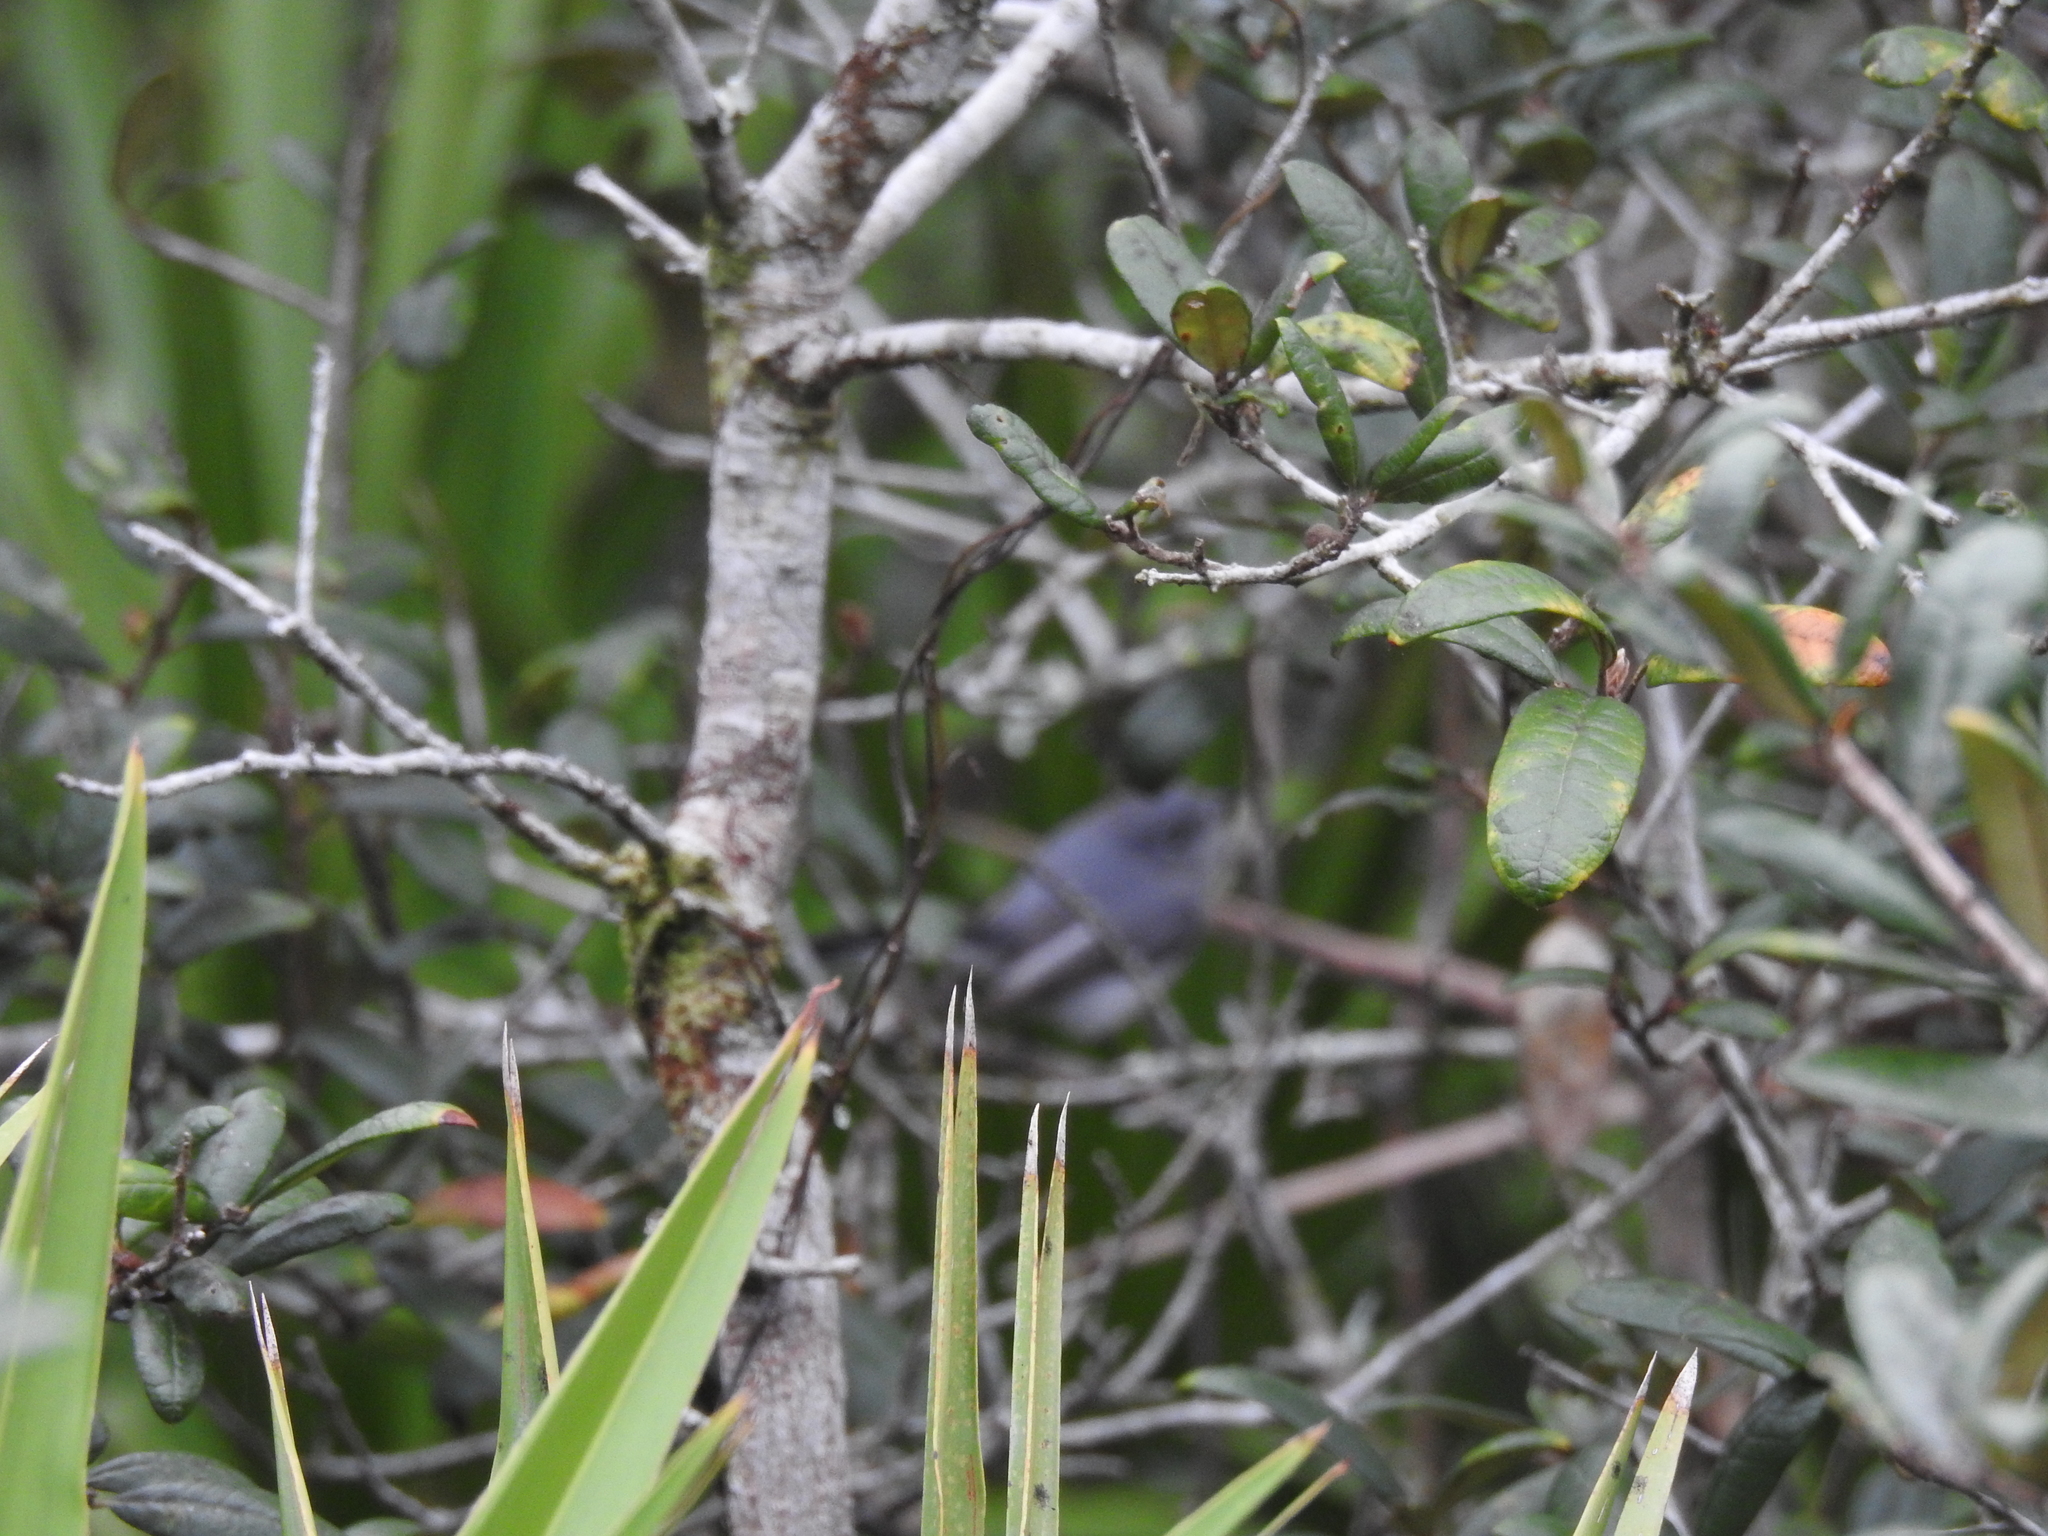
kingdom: Animalia
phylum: Chordata
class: Aves
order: Passeriformes
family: Polioptilidae
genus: Polioptila
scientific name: Polioptila caerulea
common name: Blue-gray gnatcatcher
